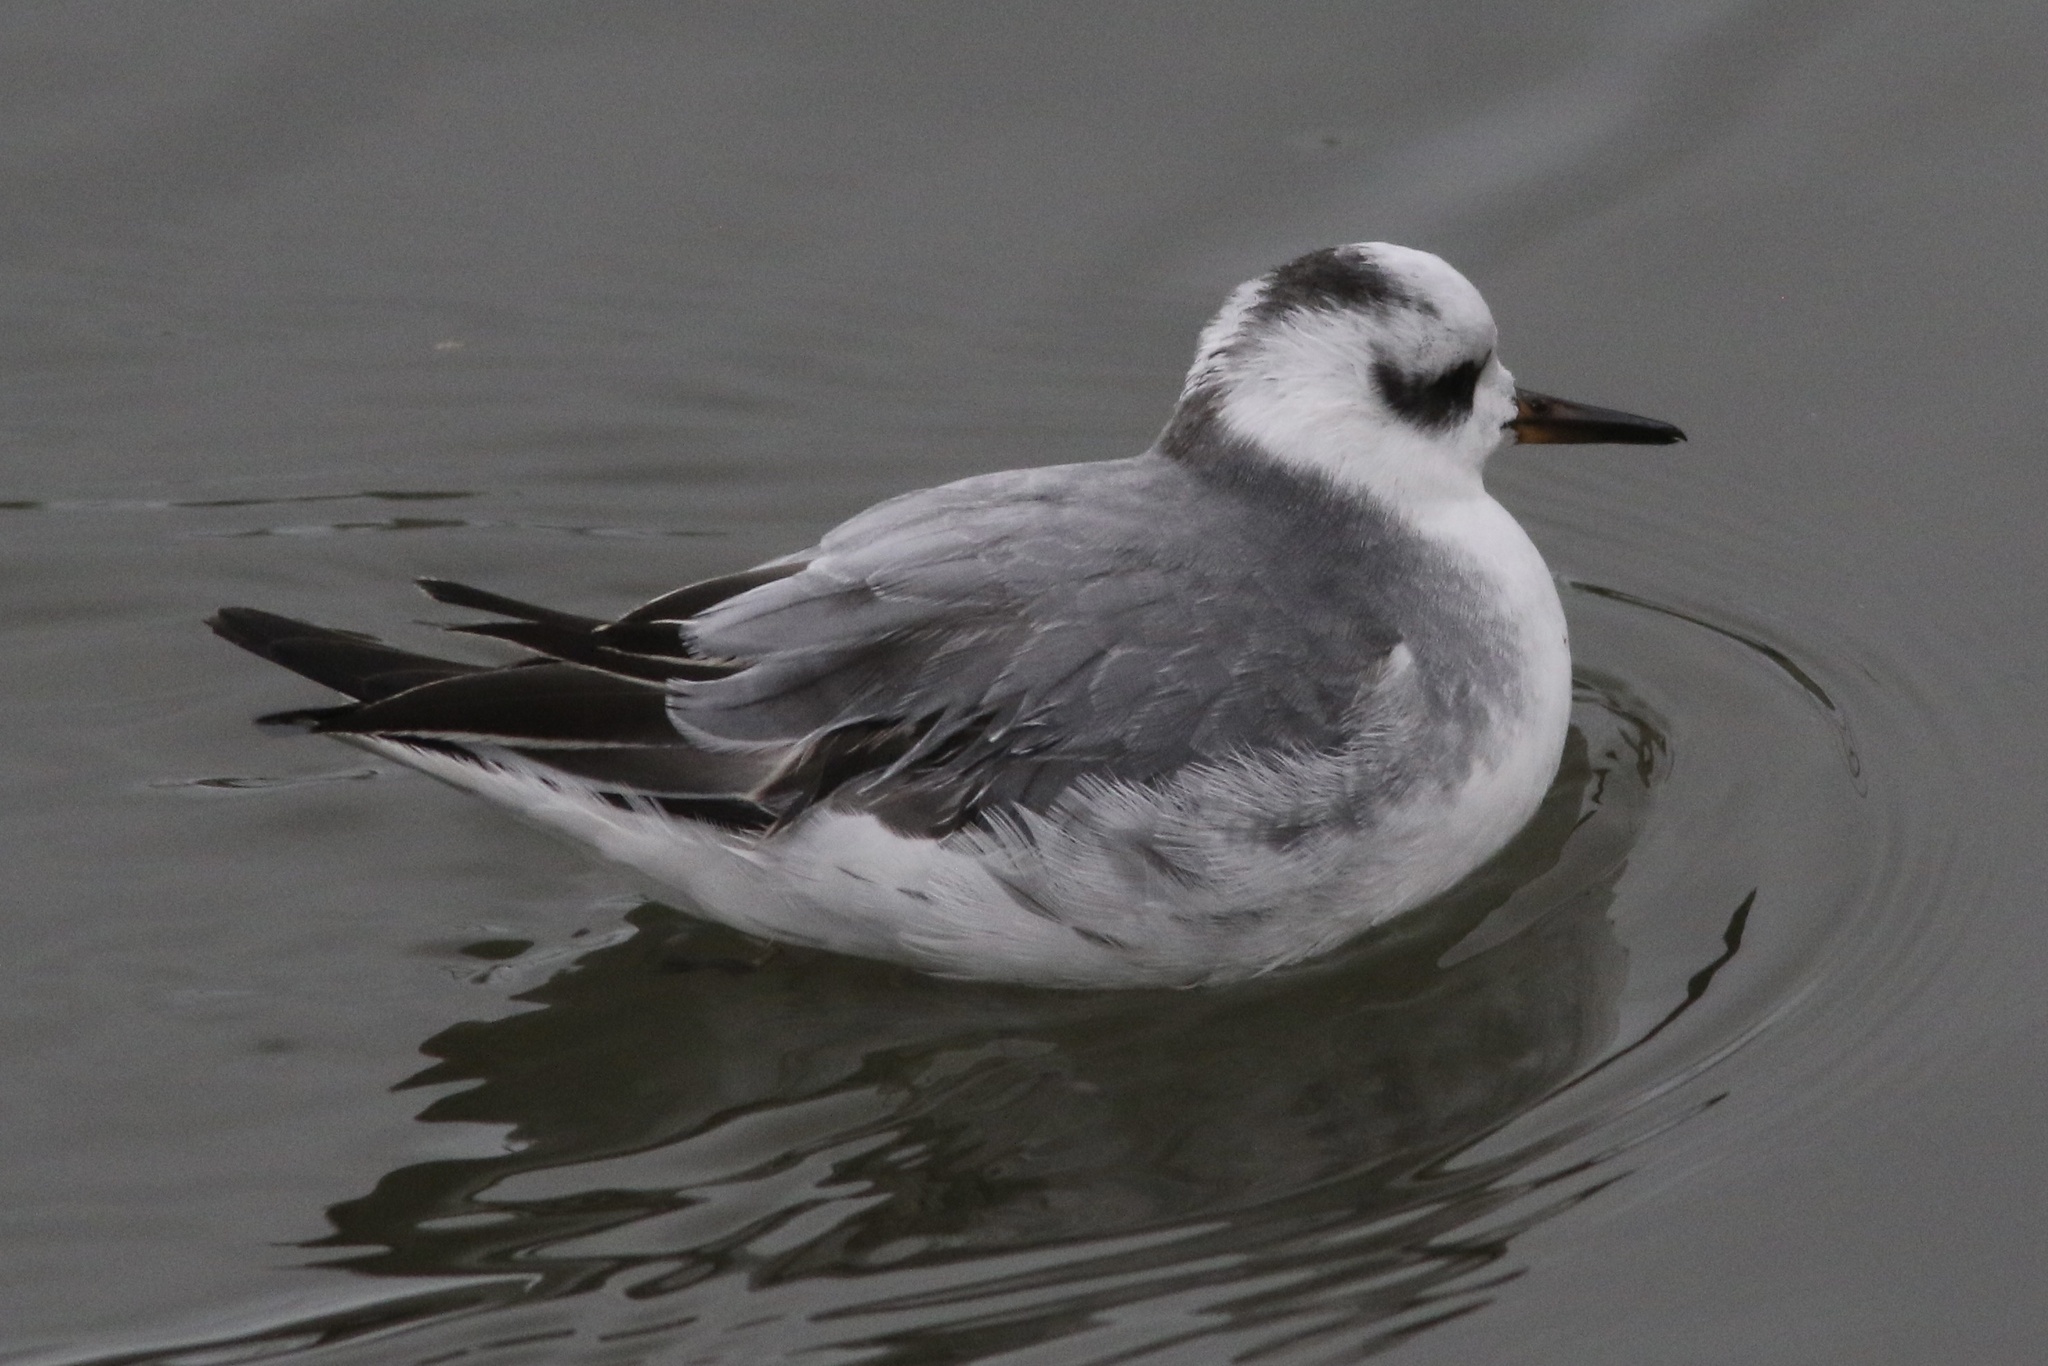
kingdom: Animalia
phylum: Chordata
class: Aves
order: Charadriiformes
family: Scolopacidae
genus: Phalaropus
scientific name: Phalaropus fulicarius
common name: Red phalarope
